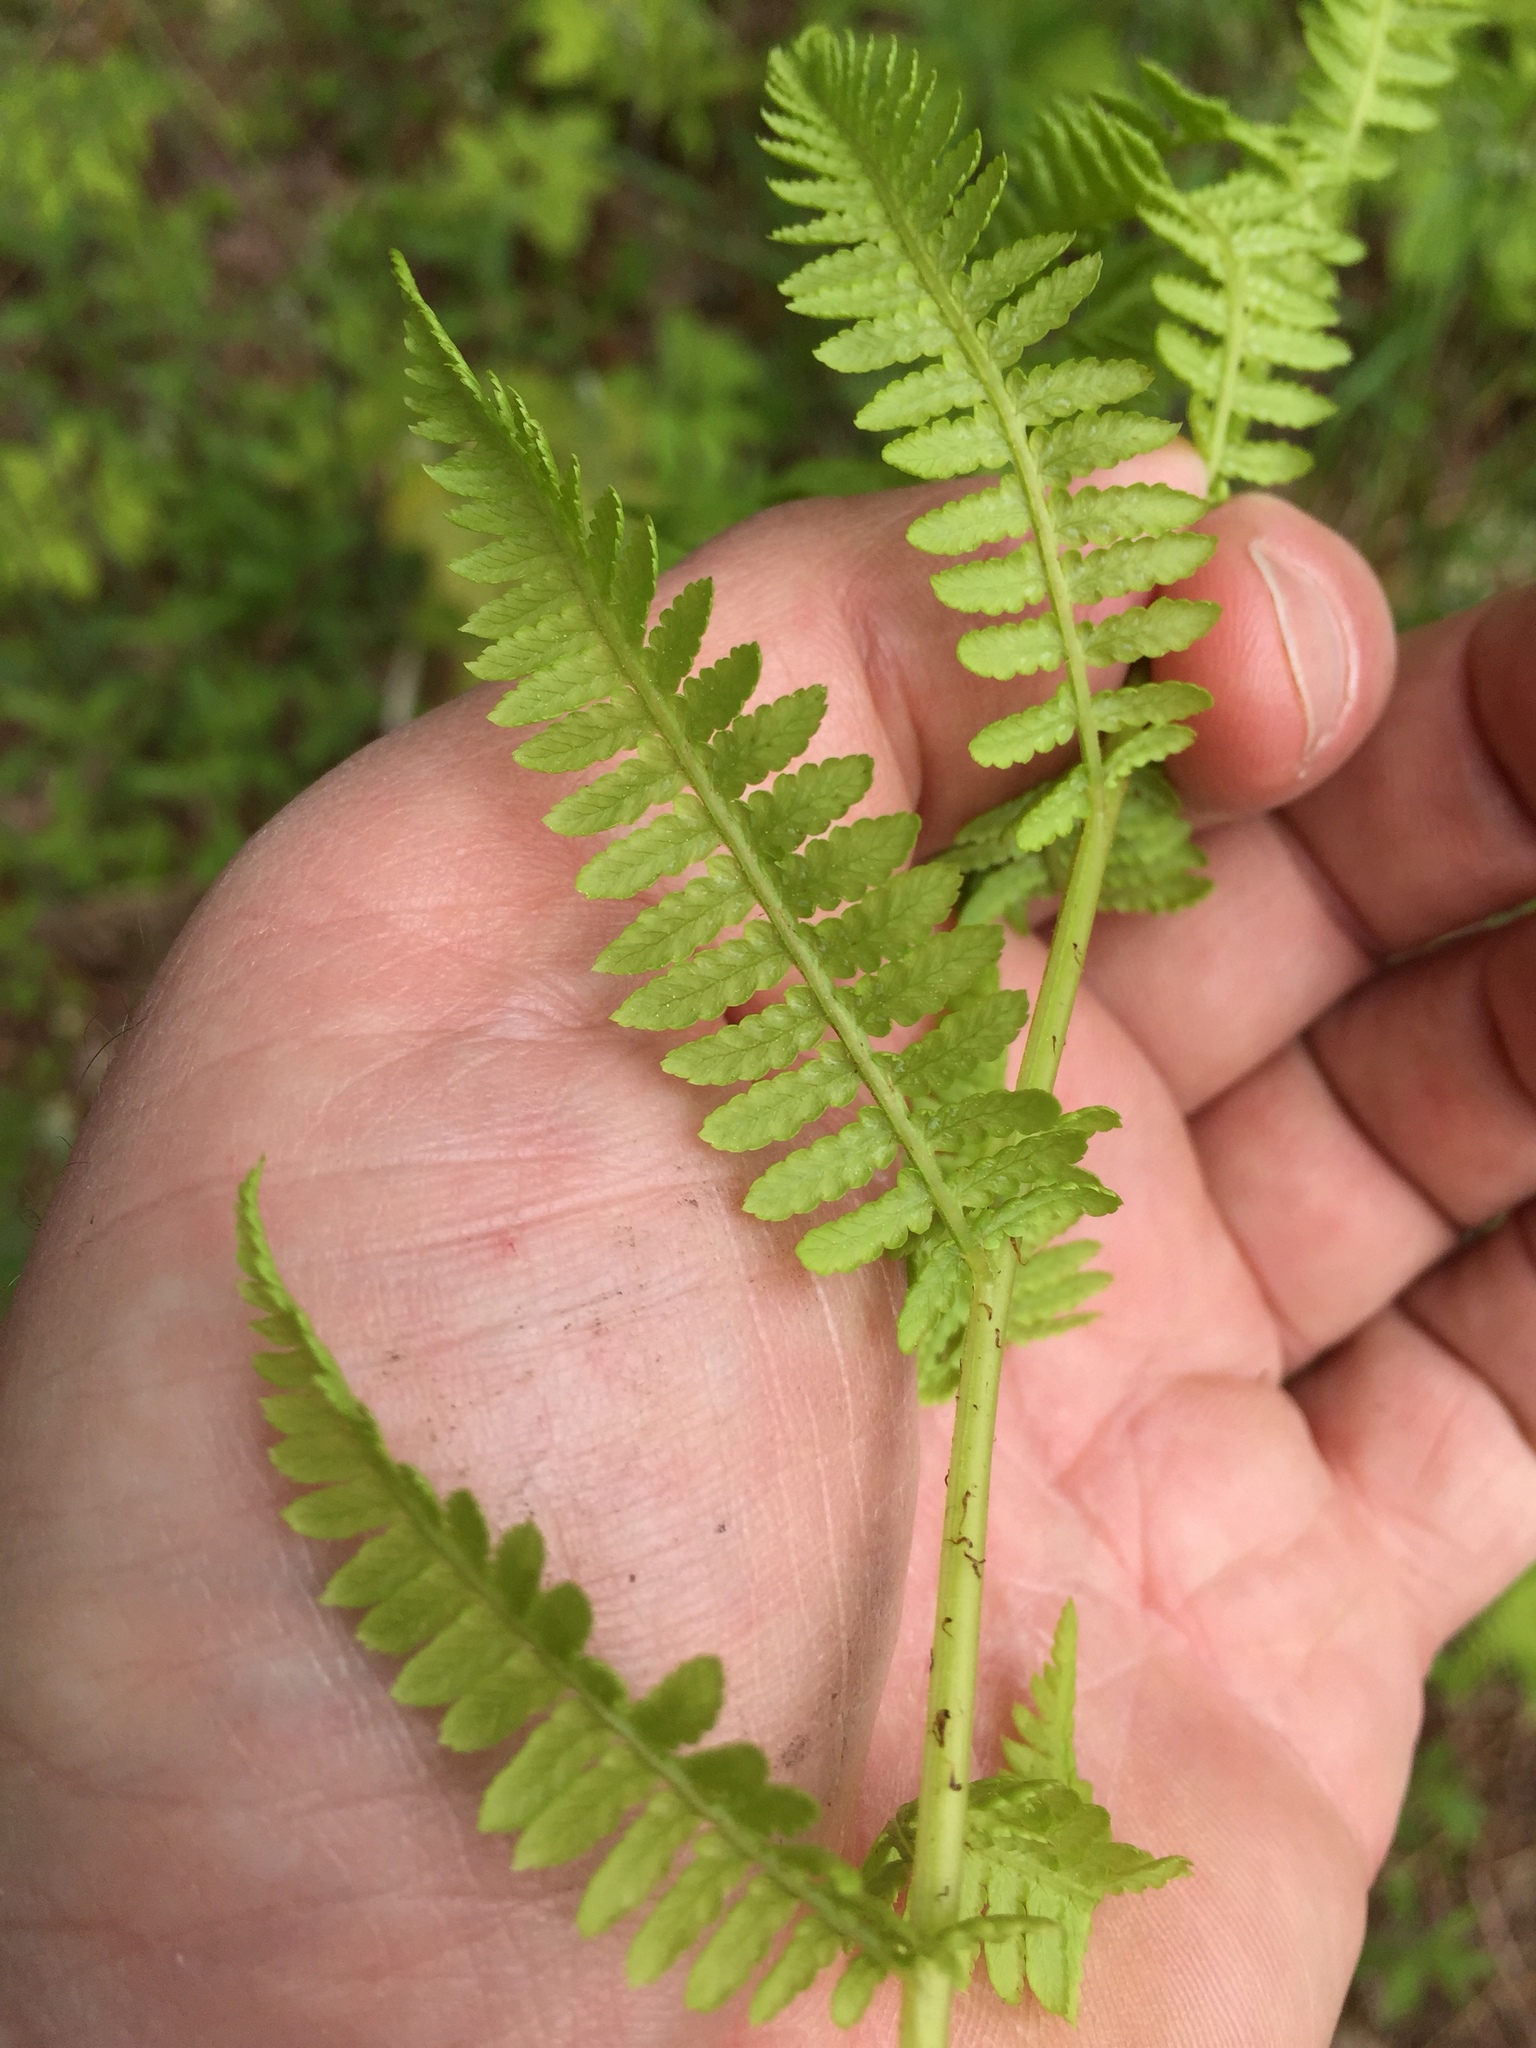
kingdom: Plantae
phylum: Tracheophyta
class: Polypodiopsida
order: Polypodiales
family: Athyriaceae
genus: Athyrium
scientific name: Athyrium angustum
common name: Northern lady fern
